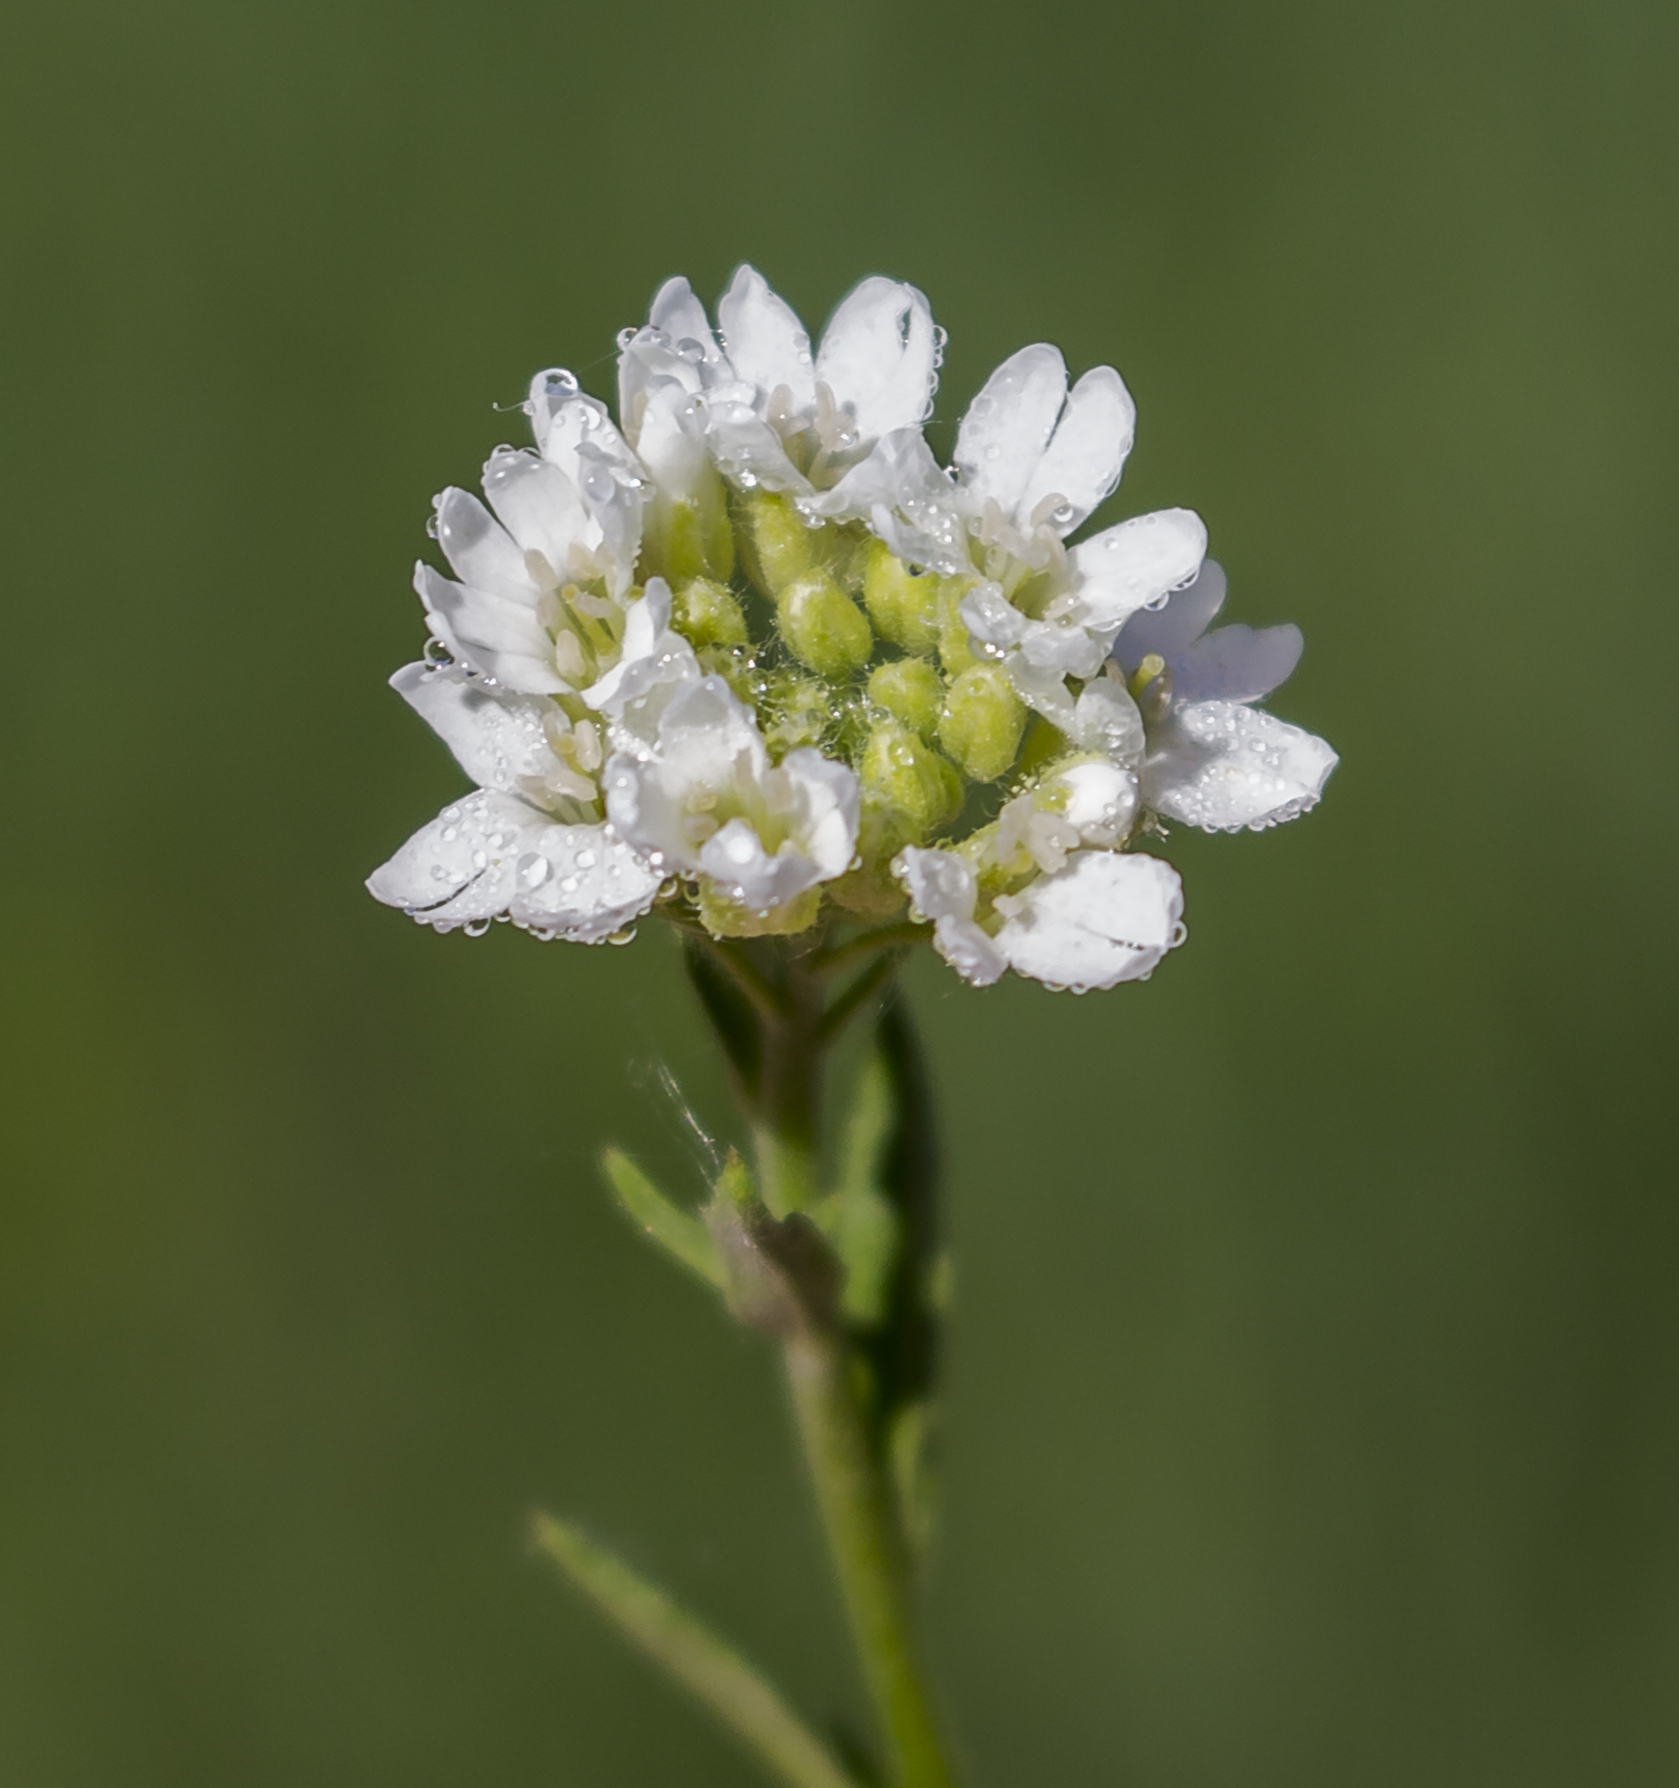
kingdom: Plantae
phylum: Tracheophyta
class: Magnoliopsida
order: Brassicales
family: Brassicaceae
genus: Berteroa
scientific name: Berteroa incana
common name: Hoary alison
